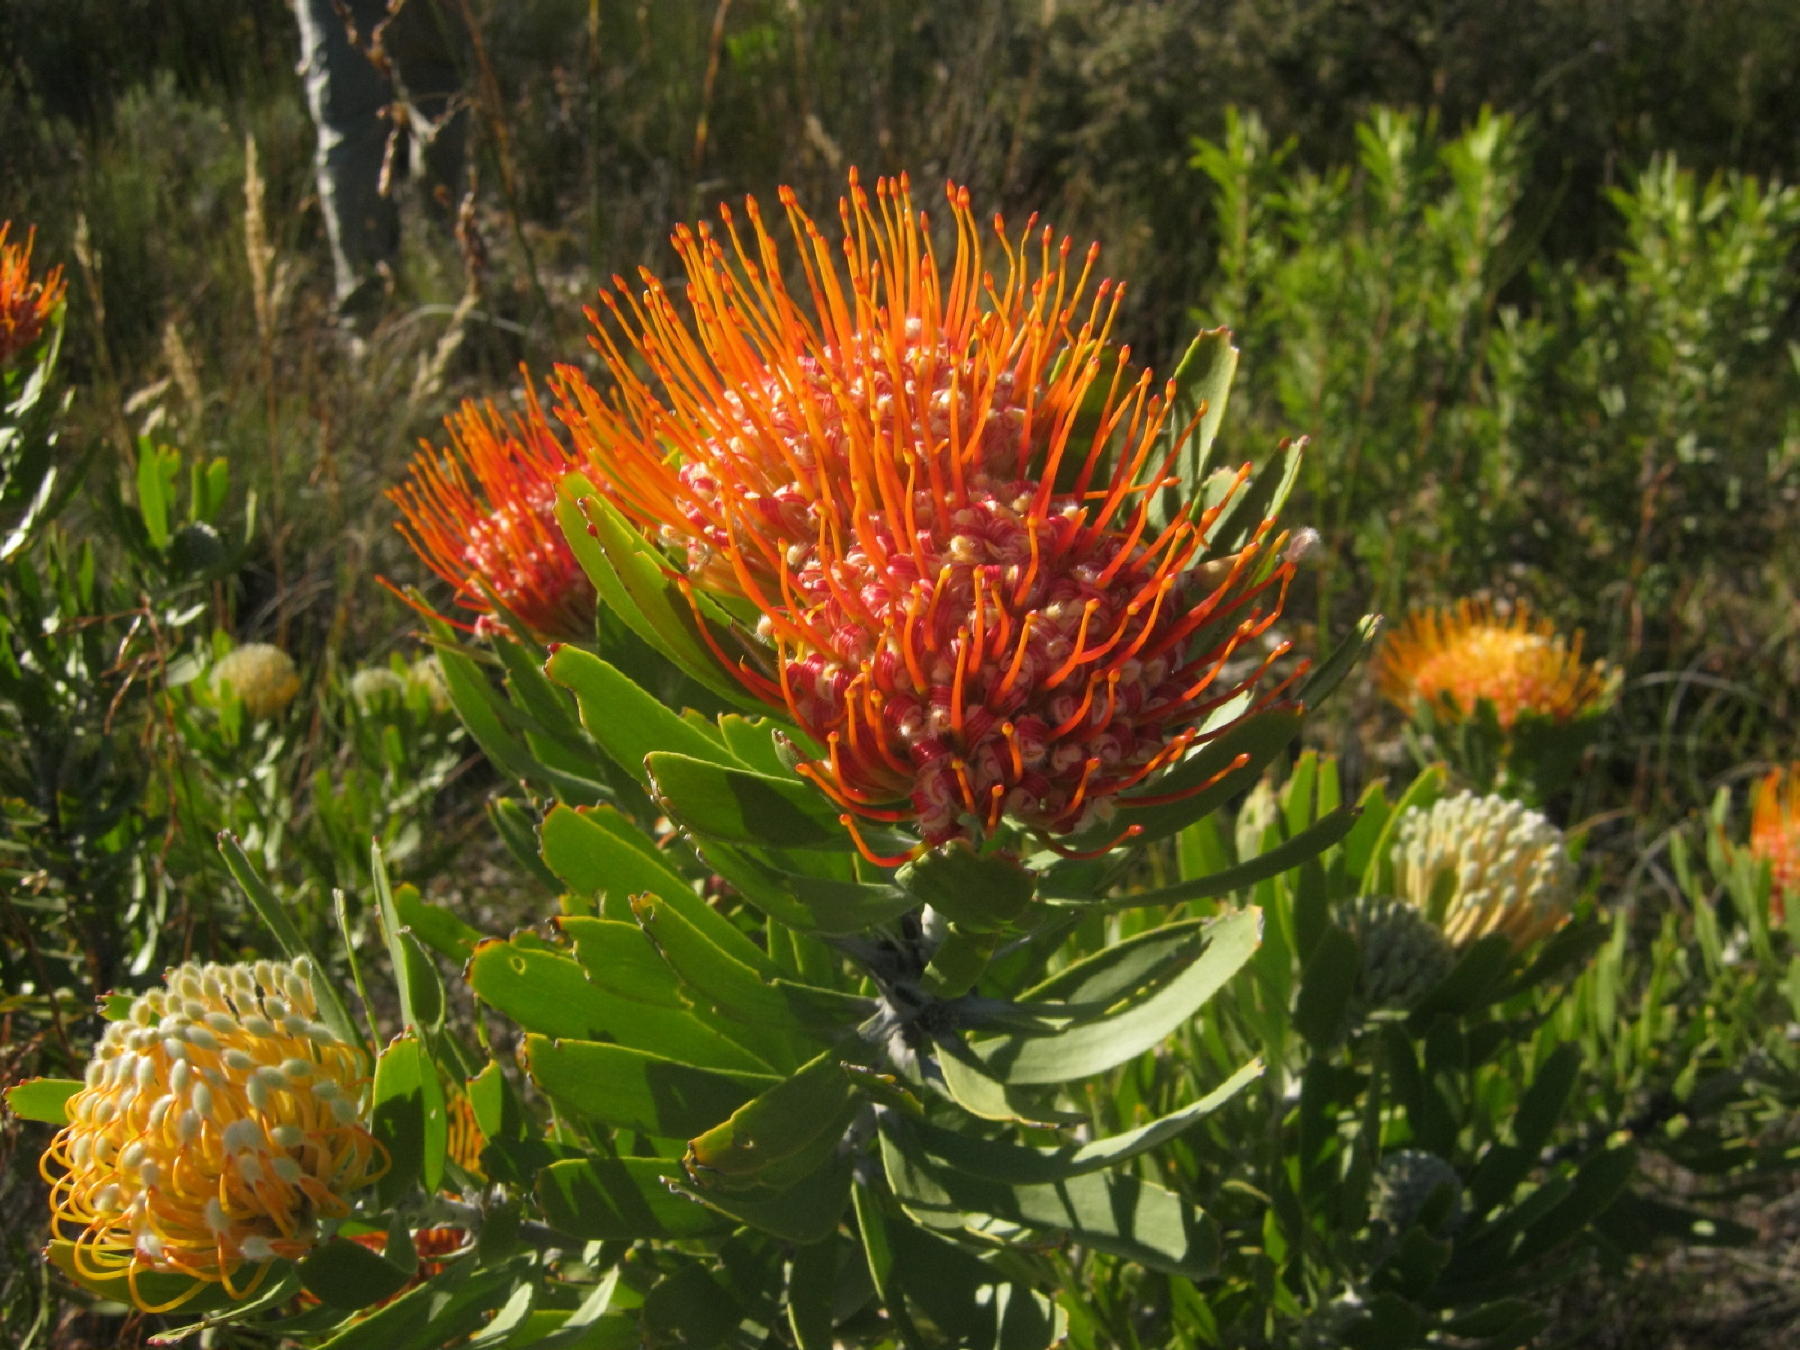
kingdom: Plantae
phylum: Tracheophyta
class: Magnoliopsida
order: Proteales
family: Proteaceae
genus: Leucospermum
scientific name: Leucospermum erubescens
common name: Oudtshoorn pincushion
